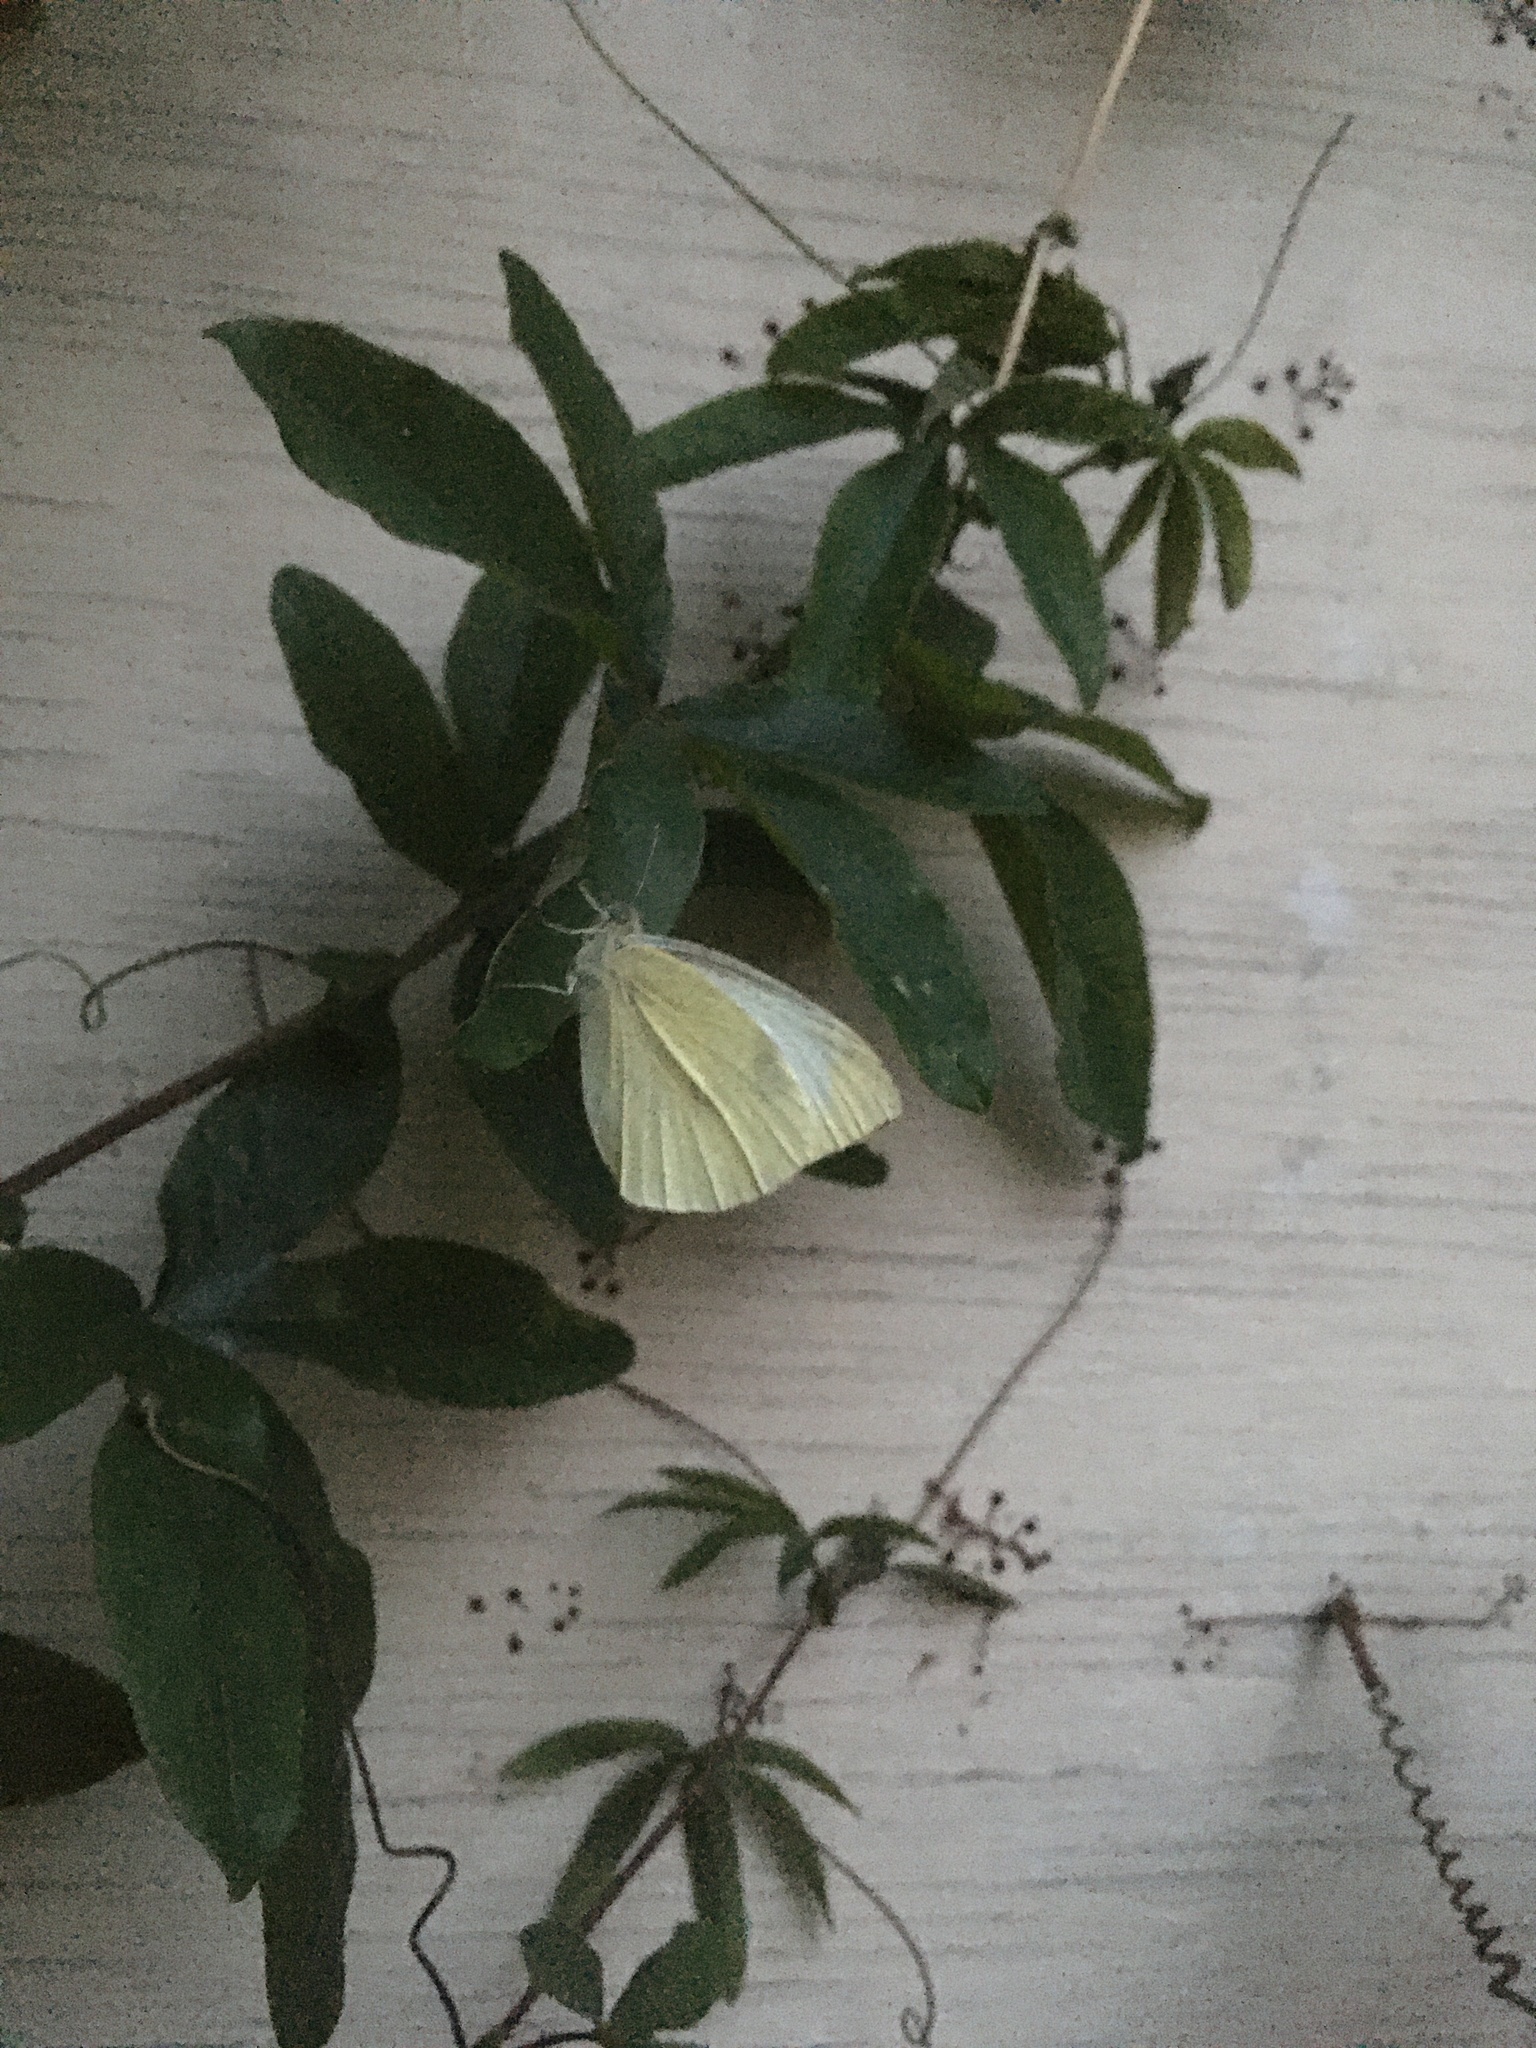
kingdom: Animalia
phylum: Arthropoda
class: Insecta
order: Lepidoptera
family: Pieridae
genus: Pieris
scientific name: Pieris rapae
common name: Small white
